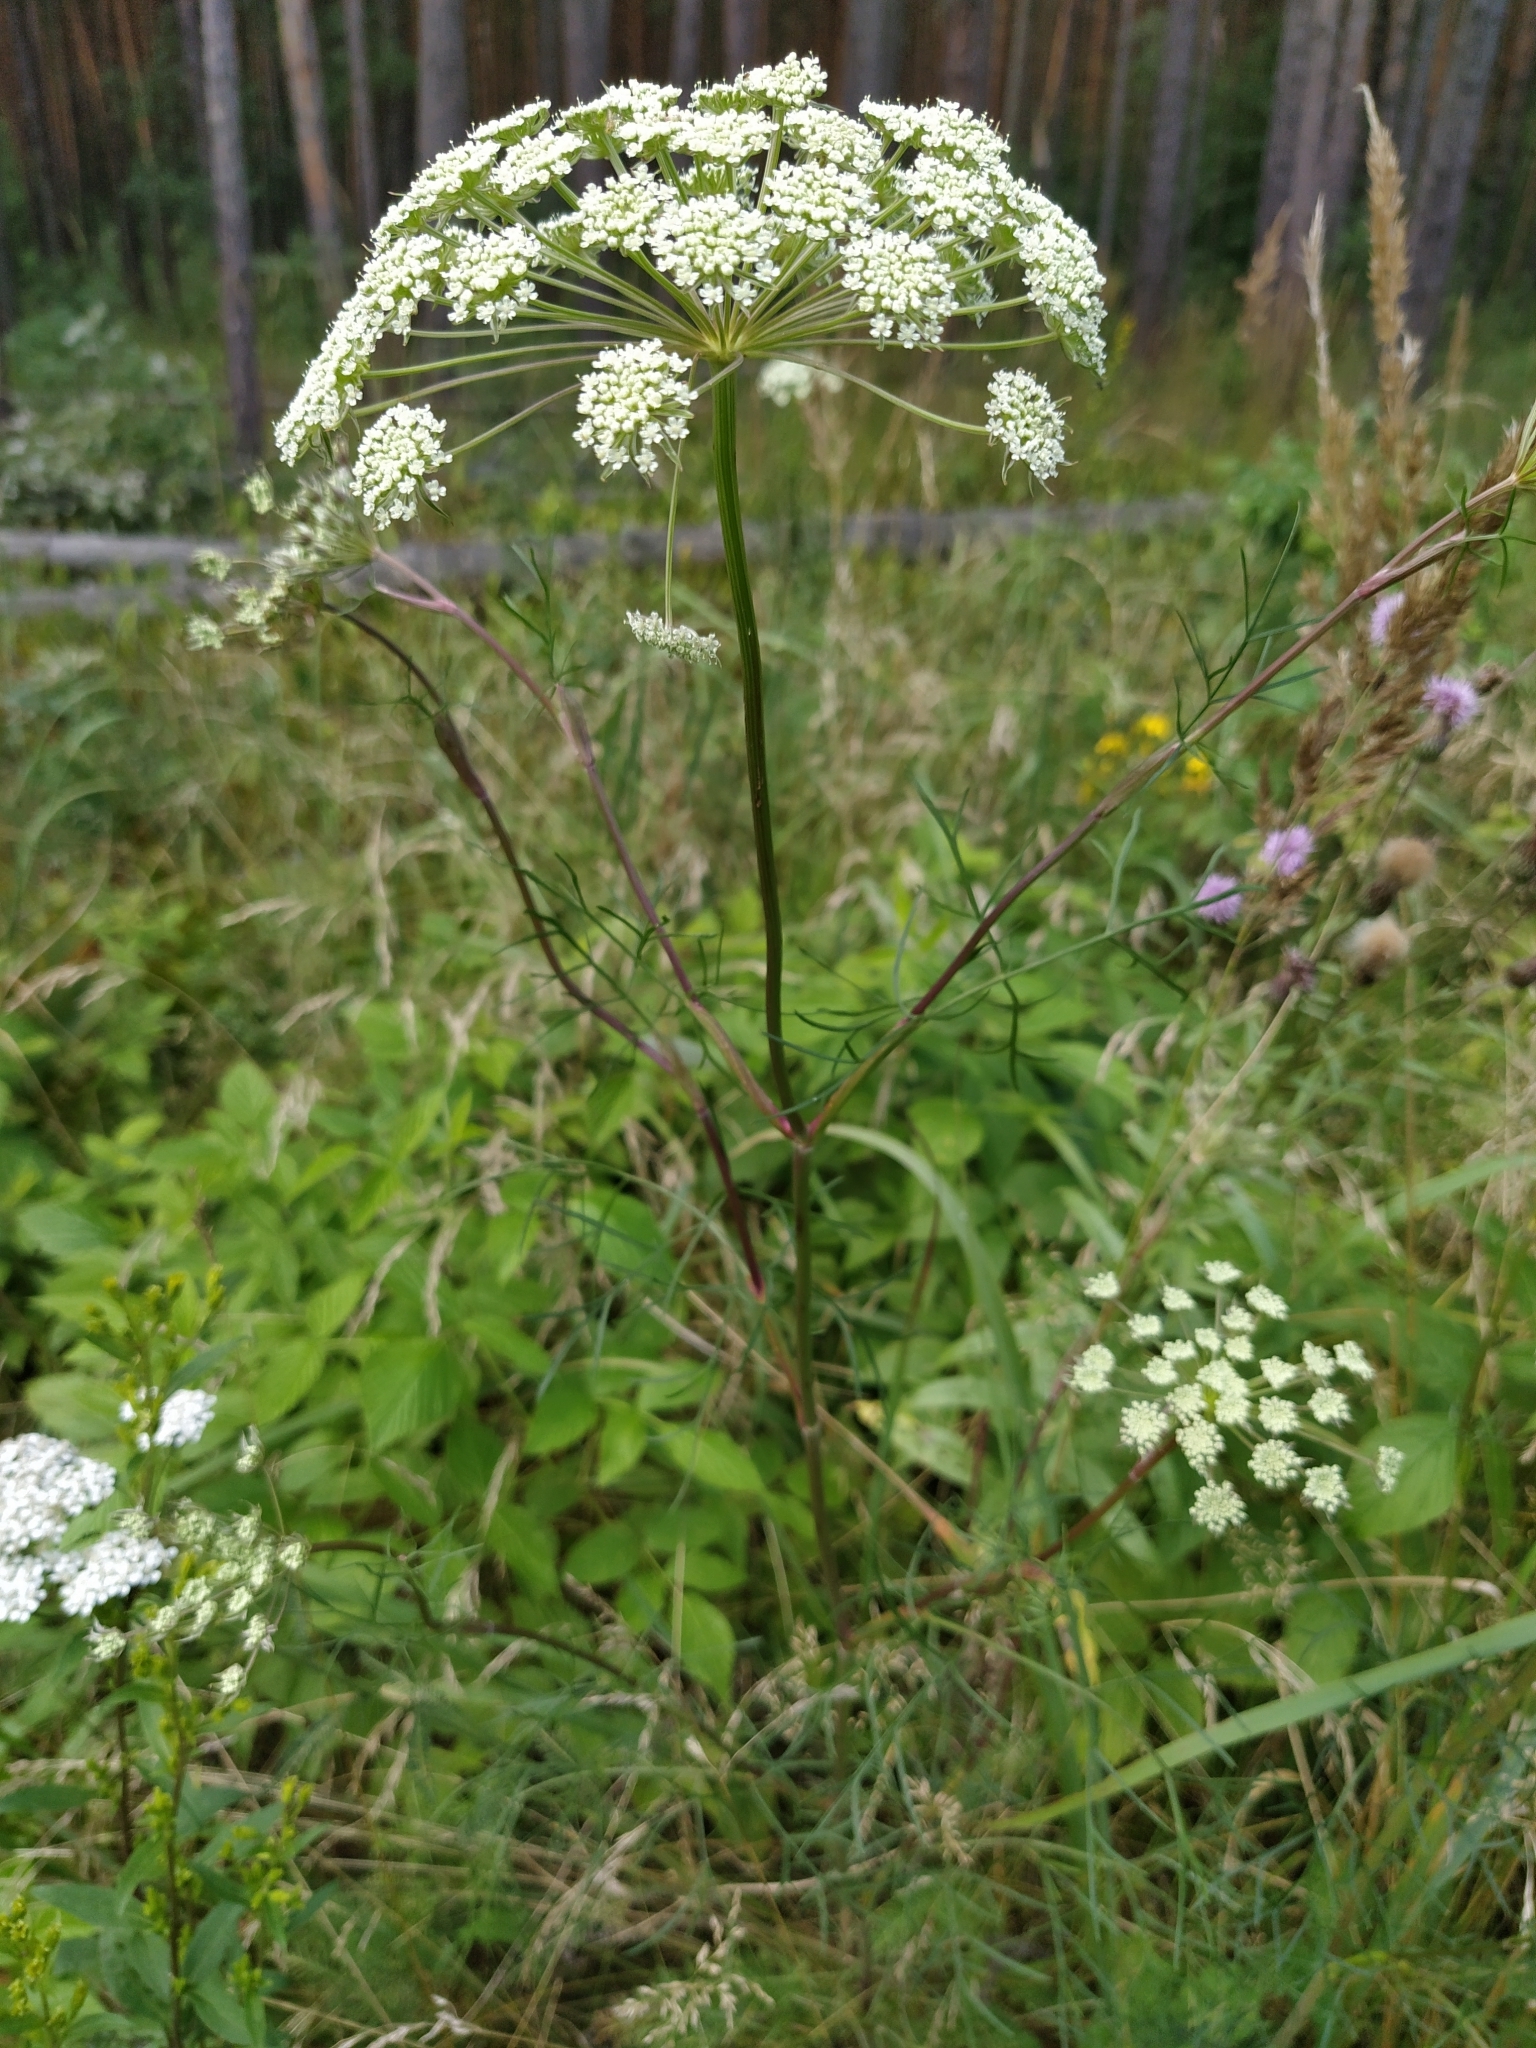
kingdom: Plantae
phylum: Tracheophyta
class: Magnoliopsida
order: Apiales
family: Apiaceae
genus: Seseli
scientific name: Seseli annuum
